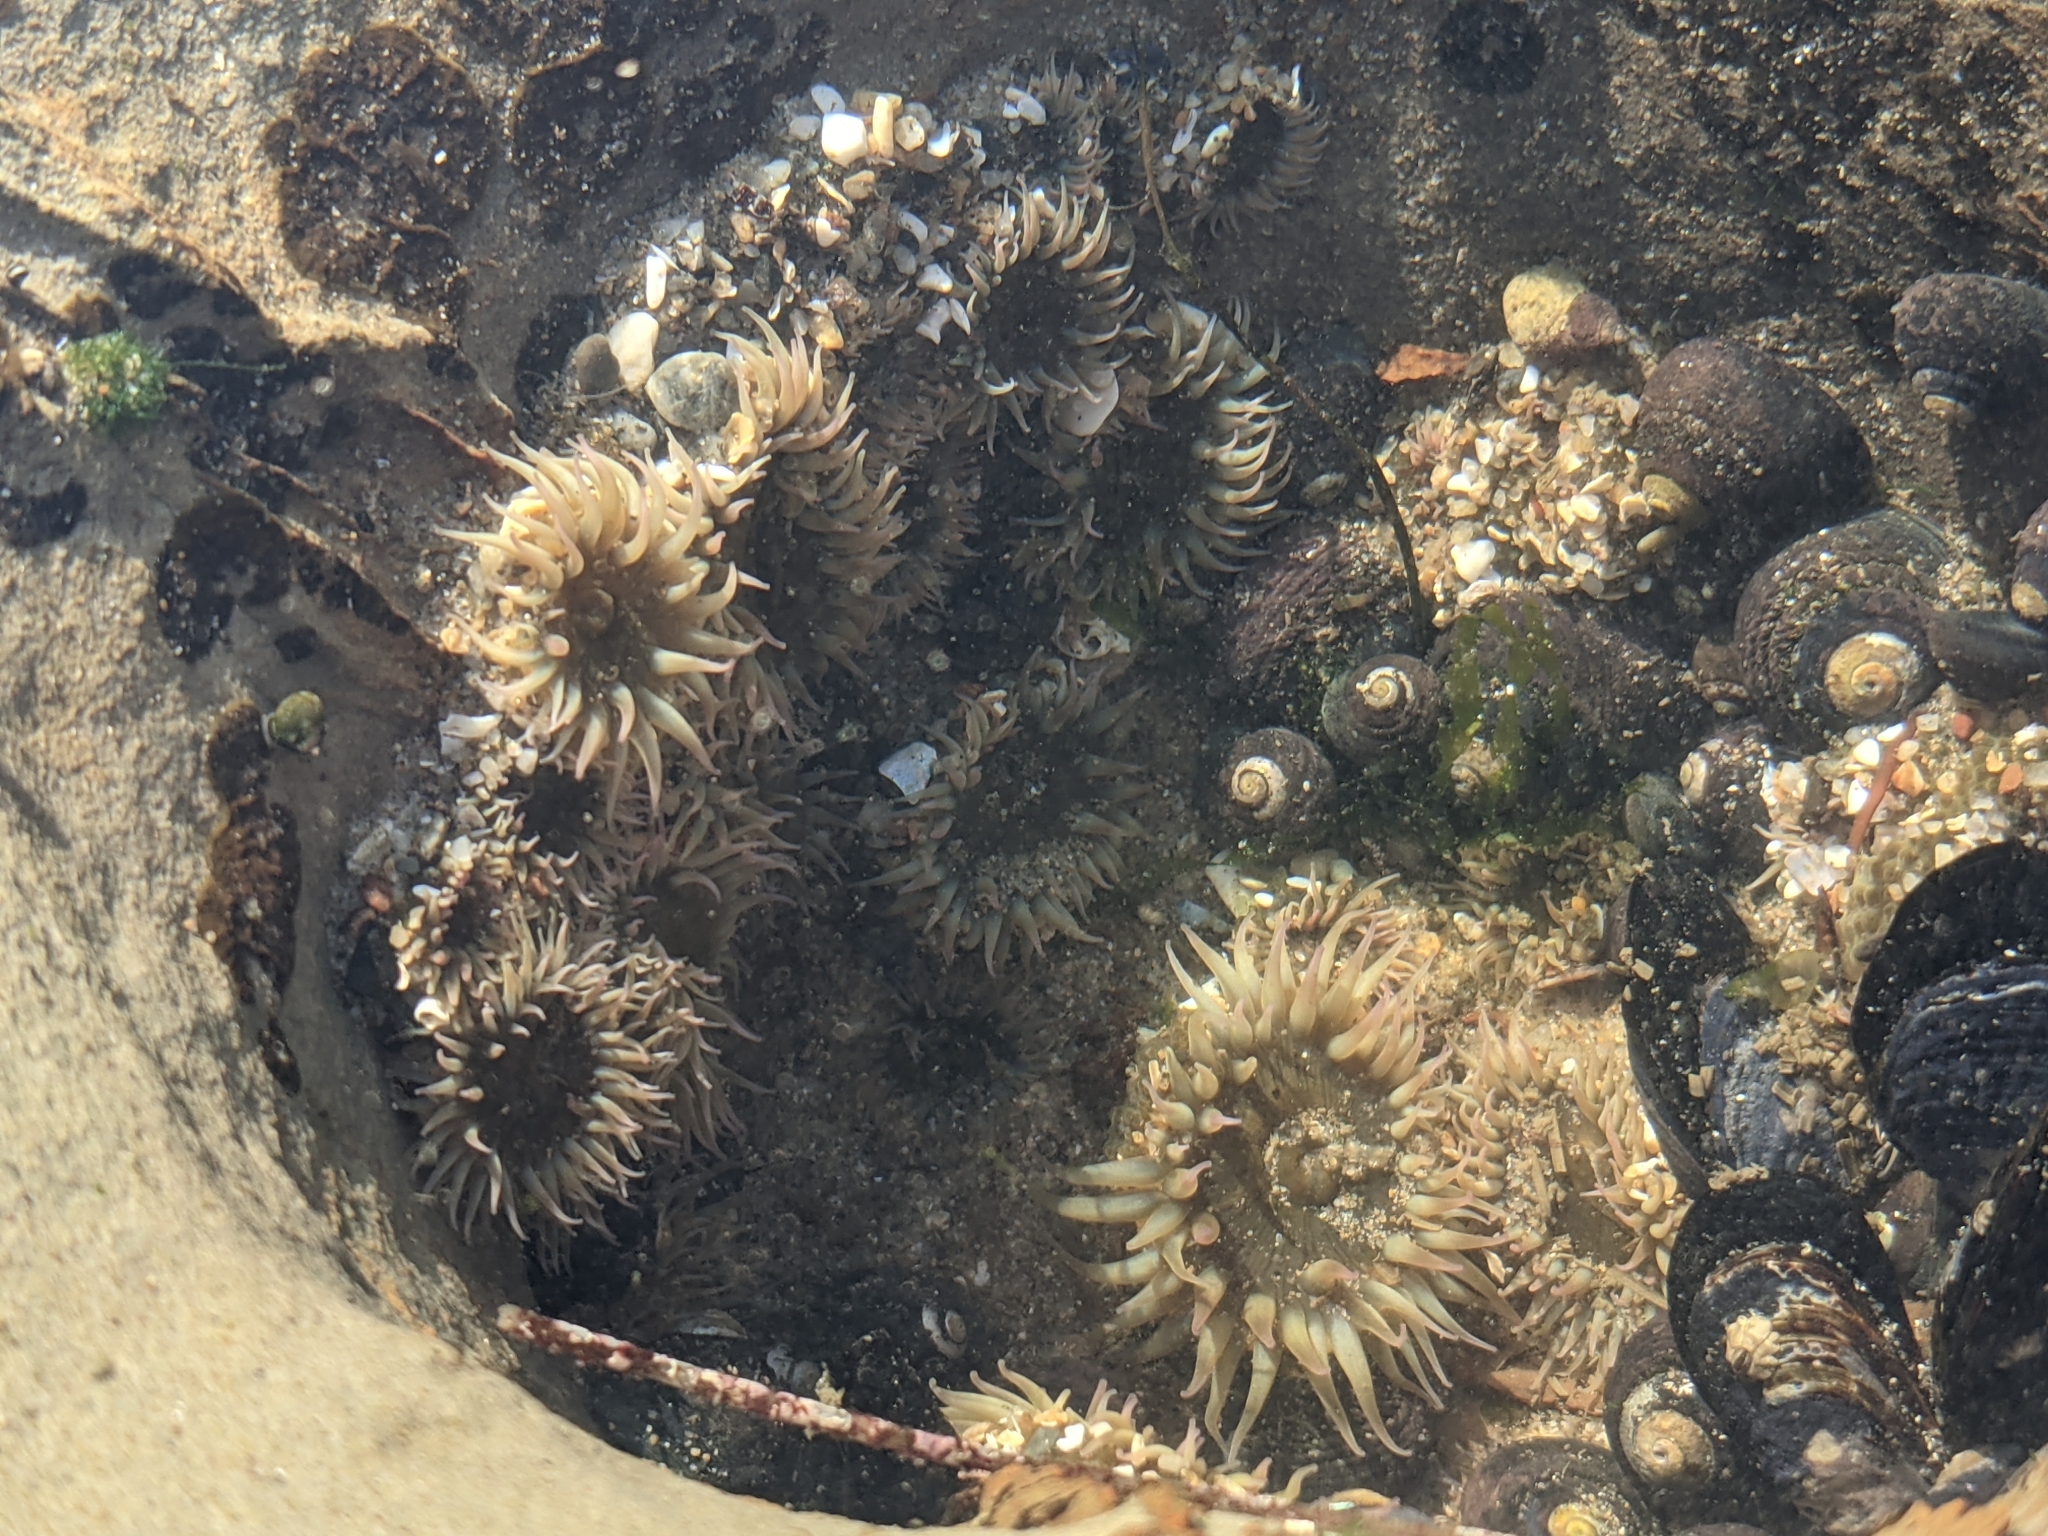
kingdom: Animalia
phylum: Cnidaria
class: Anthozoa
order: Actiniaria
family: Actiniidae
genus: Anthopleura
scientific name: Anthopleura elegantissima
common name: Clonal anemone
